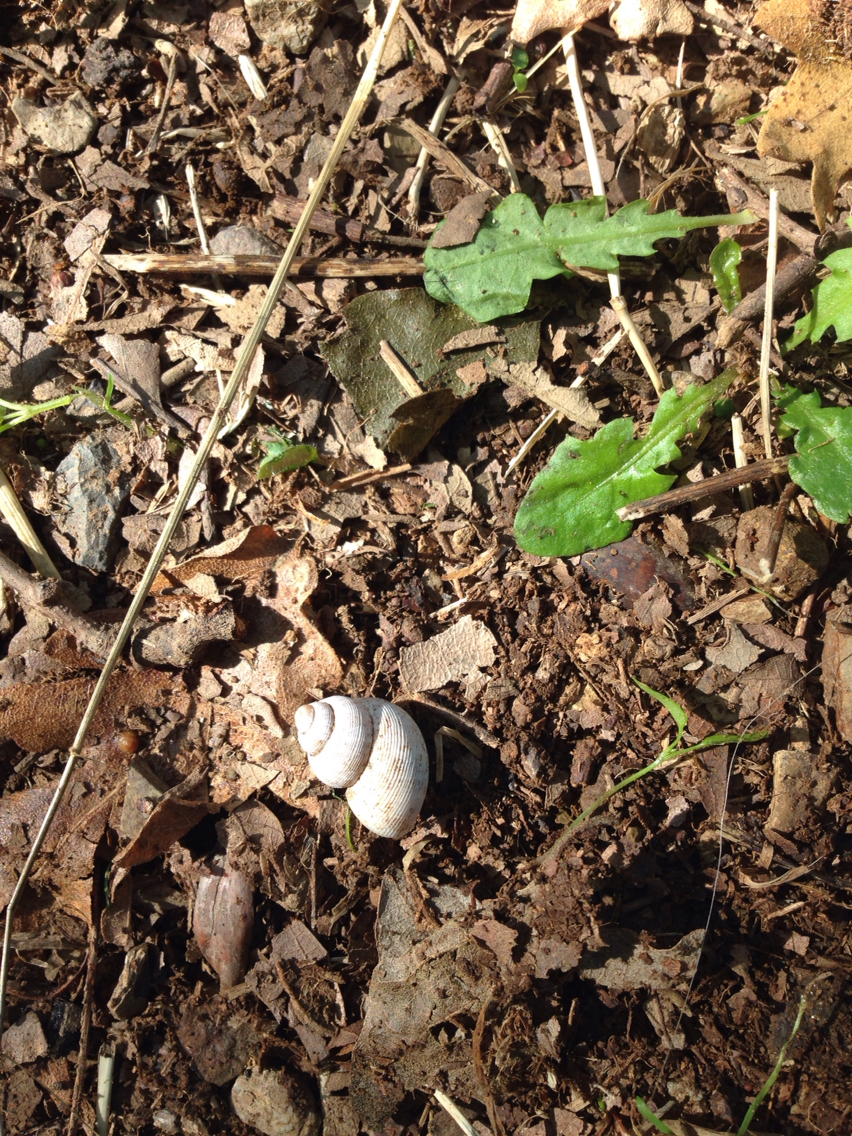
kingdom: Animalia
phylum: Mollusca
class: Gastropoda
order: Littorinimorpha
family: Pomatiidae
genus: Pomatias
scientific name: Pomatias elegans
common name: Red-mouthed snail
